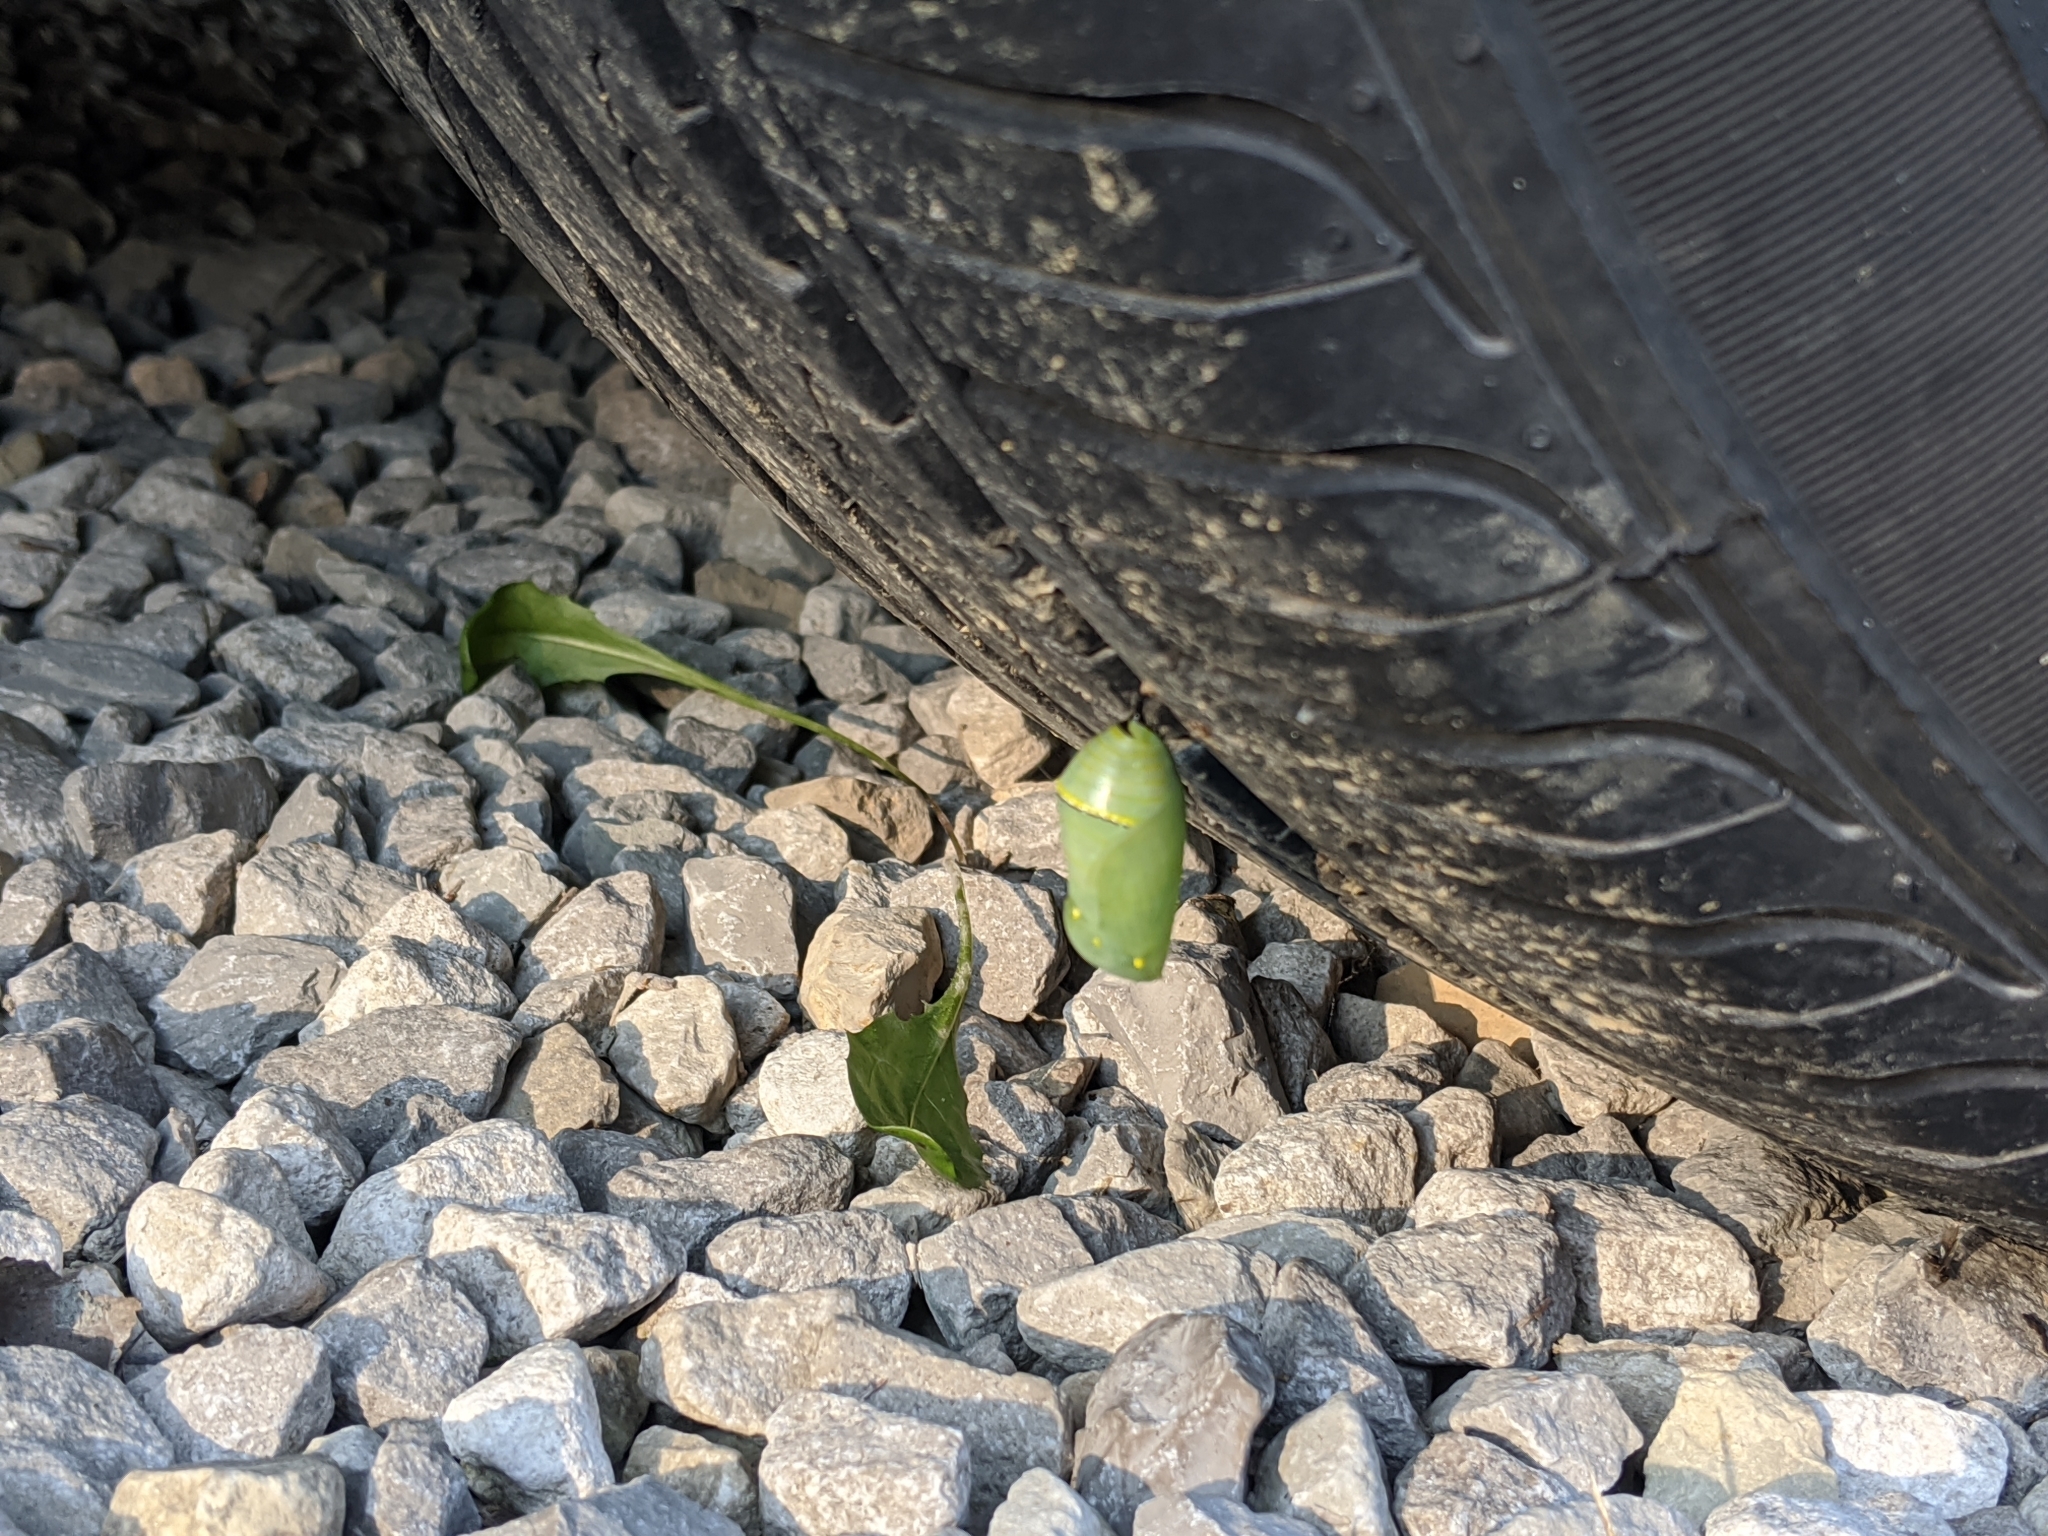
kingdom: Animalia
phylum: Arthropoda
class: Insecta
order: Lepidoptera
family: Nymphalidae
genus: Danaus
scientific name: Danaus plexippus
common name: Monarch
